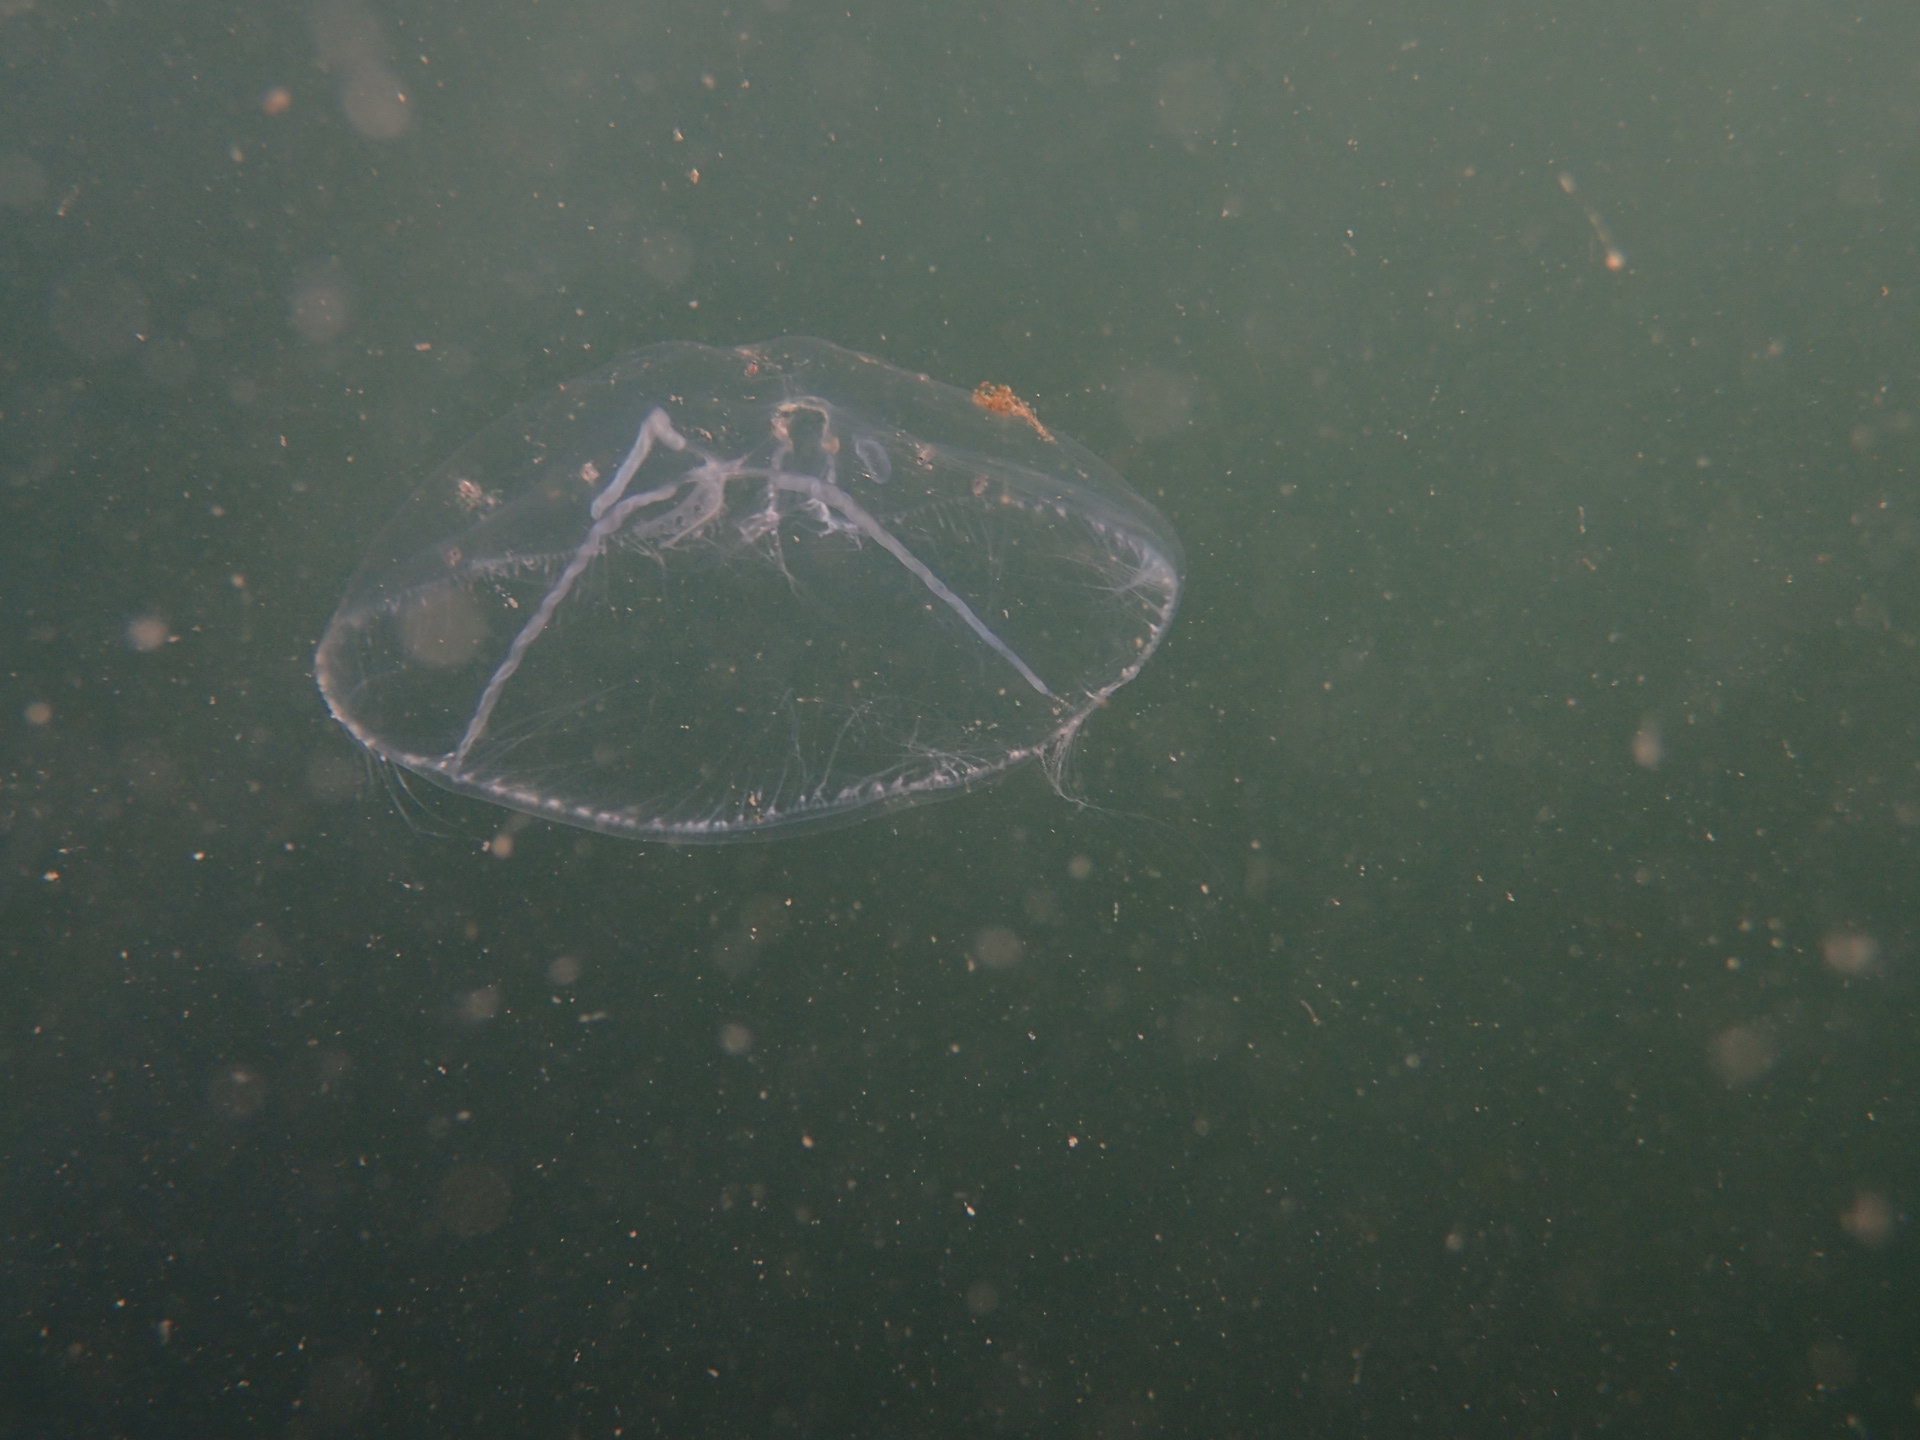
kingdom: Animalia
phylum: Cnidaria
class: Hydrozoa
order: Leptothecata
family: Mitrocomidae
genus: Mitrocoma
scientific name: Mitrocoma cellularia
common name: Cross jellyfish
